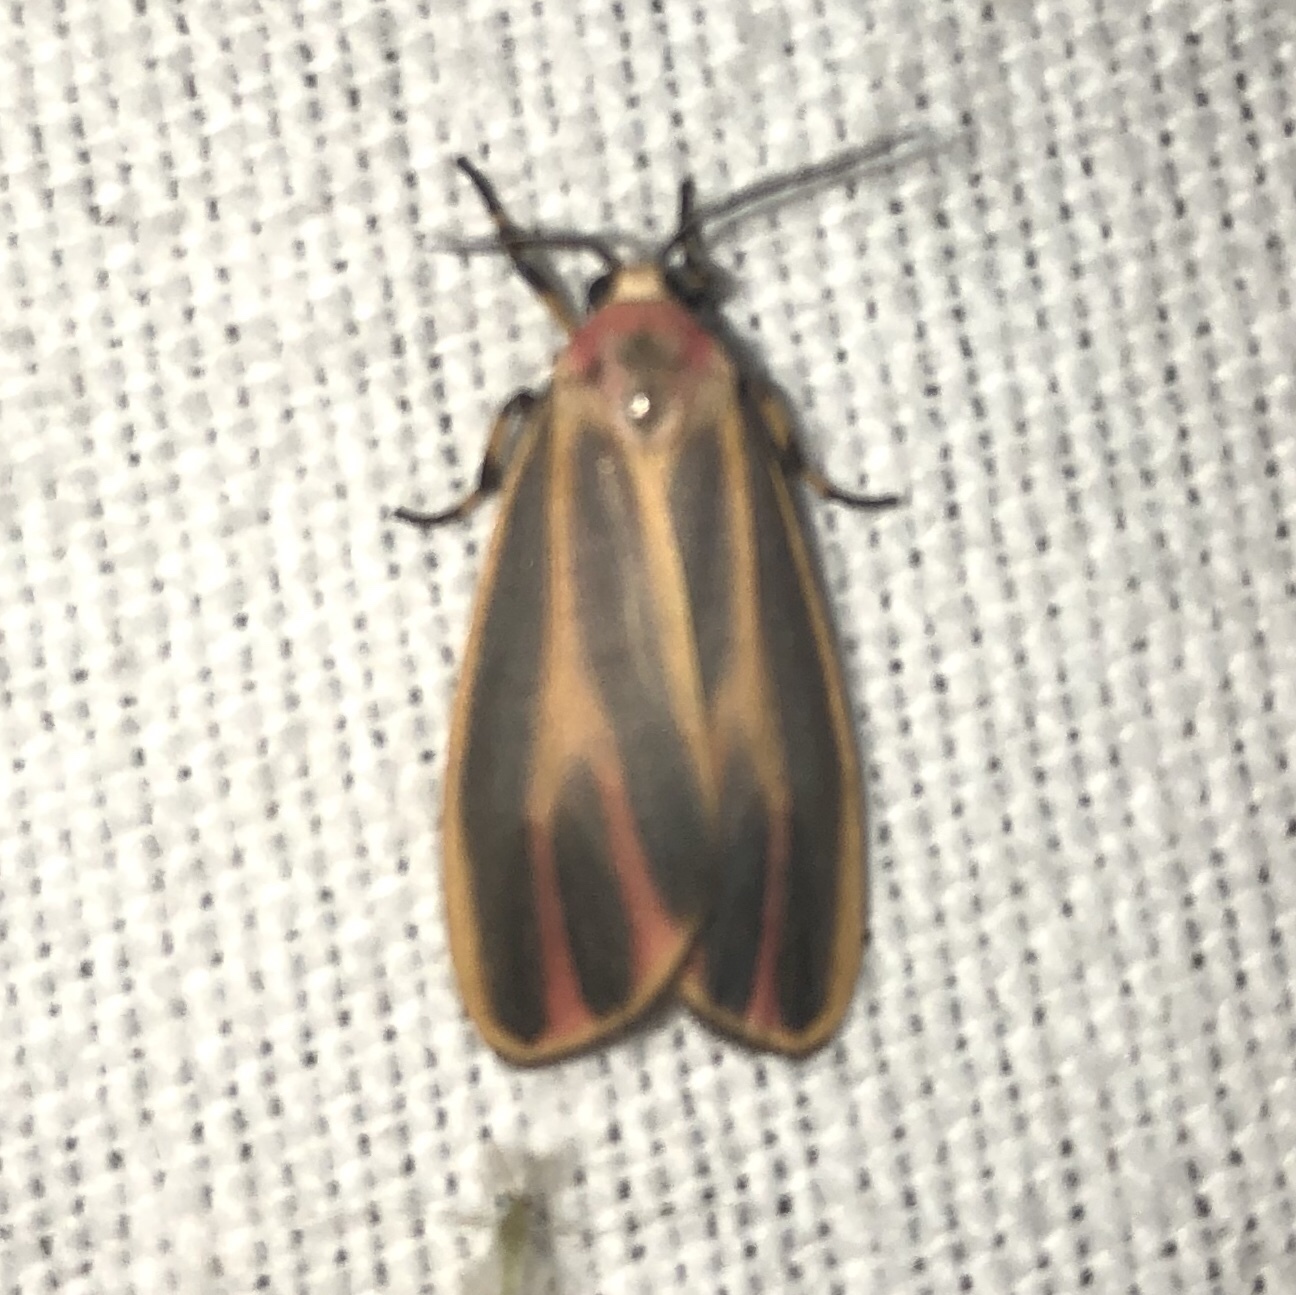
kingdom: Animalia
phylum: Arthropoda
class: Insecta
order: Lepidoptera
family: Erebidae
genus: Hypoprepia
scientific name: Hypoprepia fucosa
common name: Painted lichen moth
